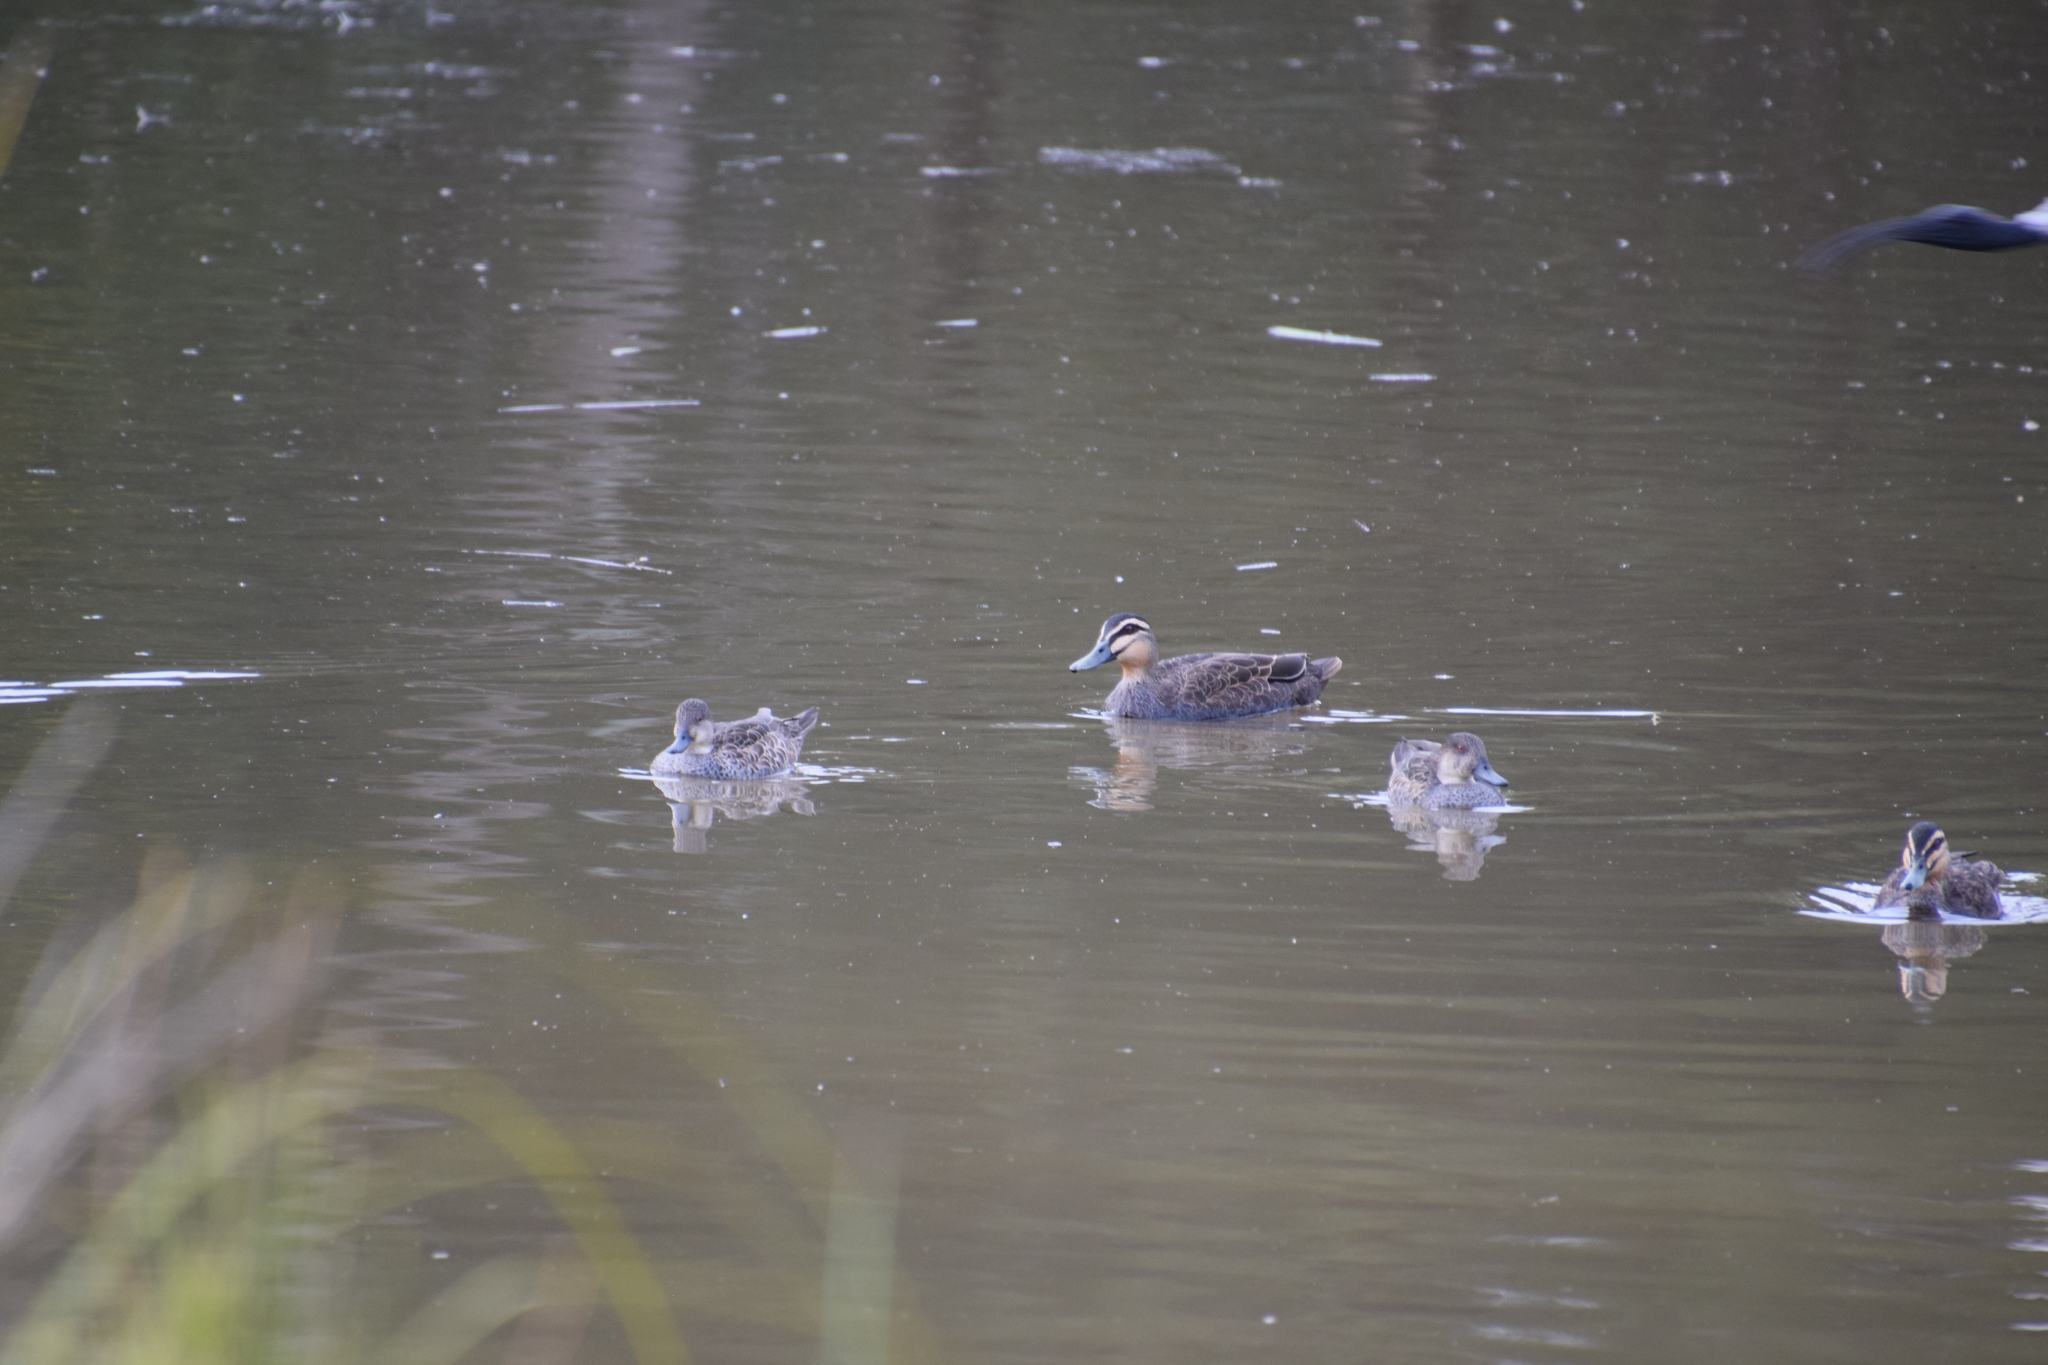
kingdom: Animalia
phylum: Chordata
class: Aves
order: Anseriformes
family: Anatidae
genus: Anas
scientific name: Anas superciliosa
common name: Pacific black duck
